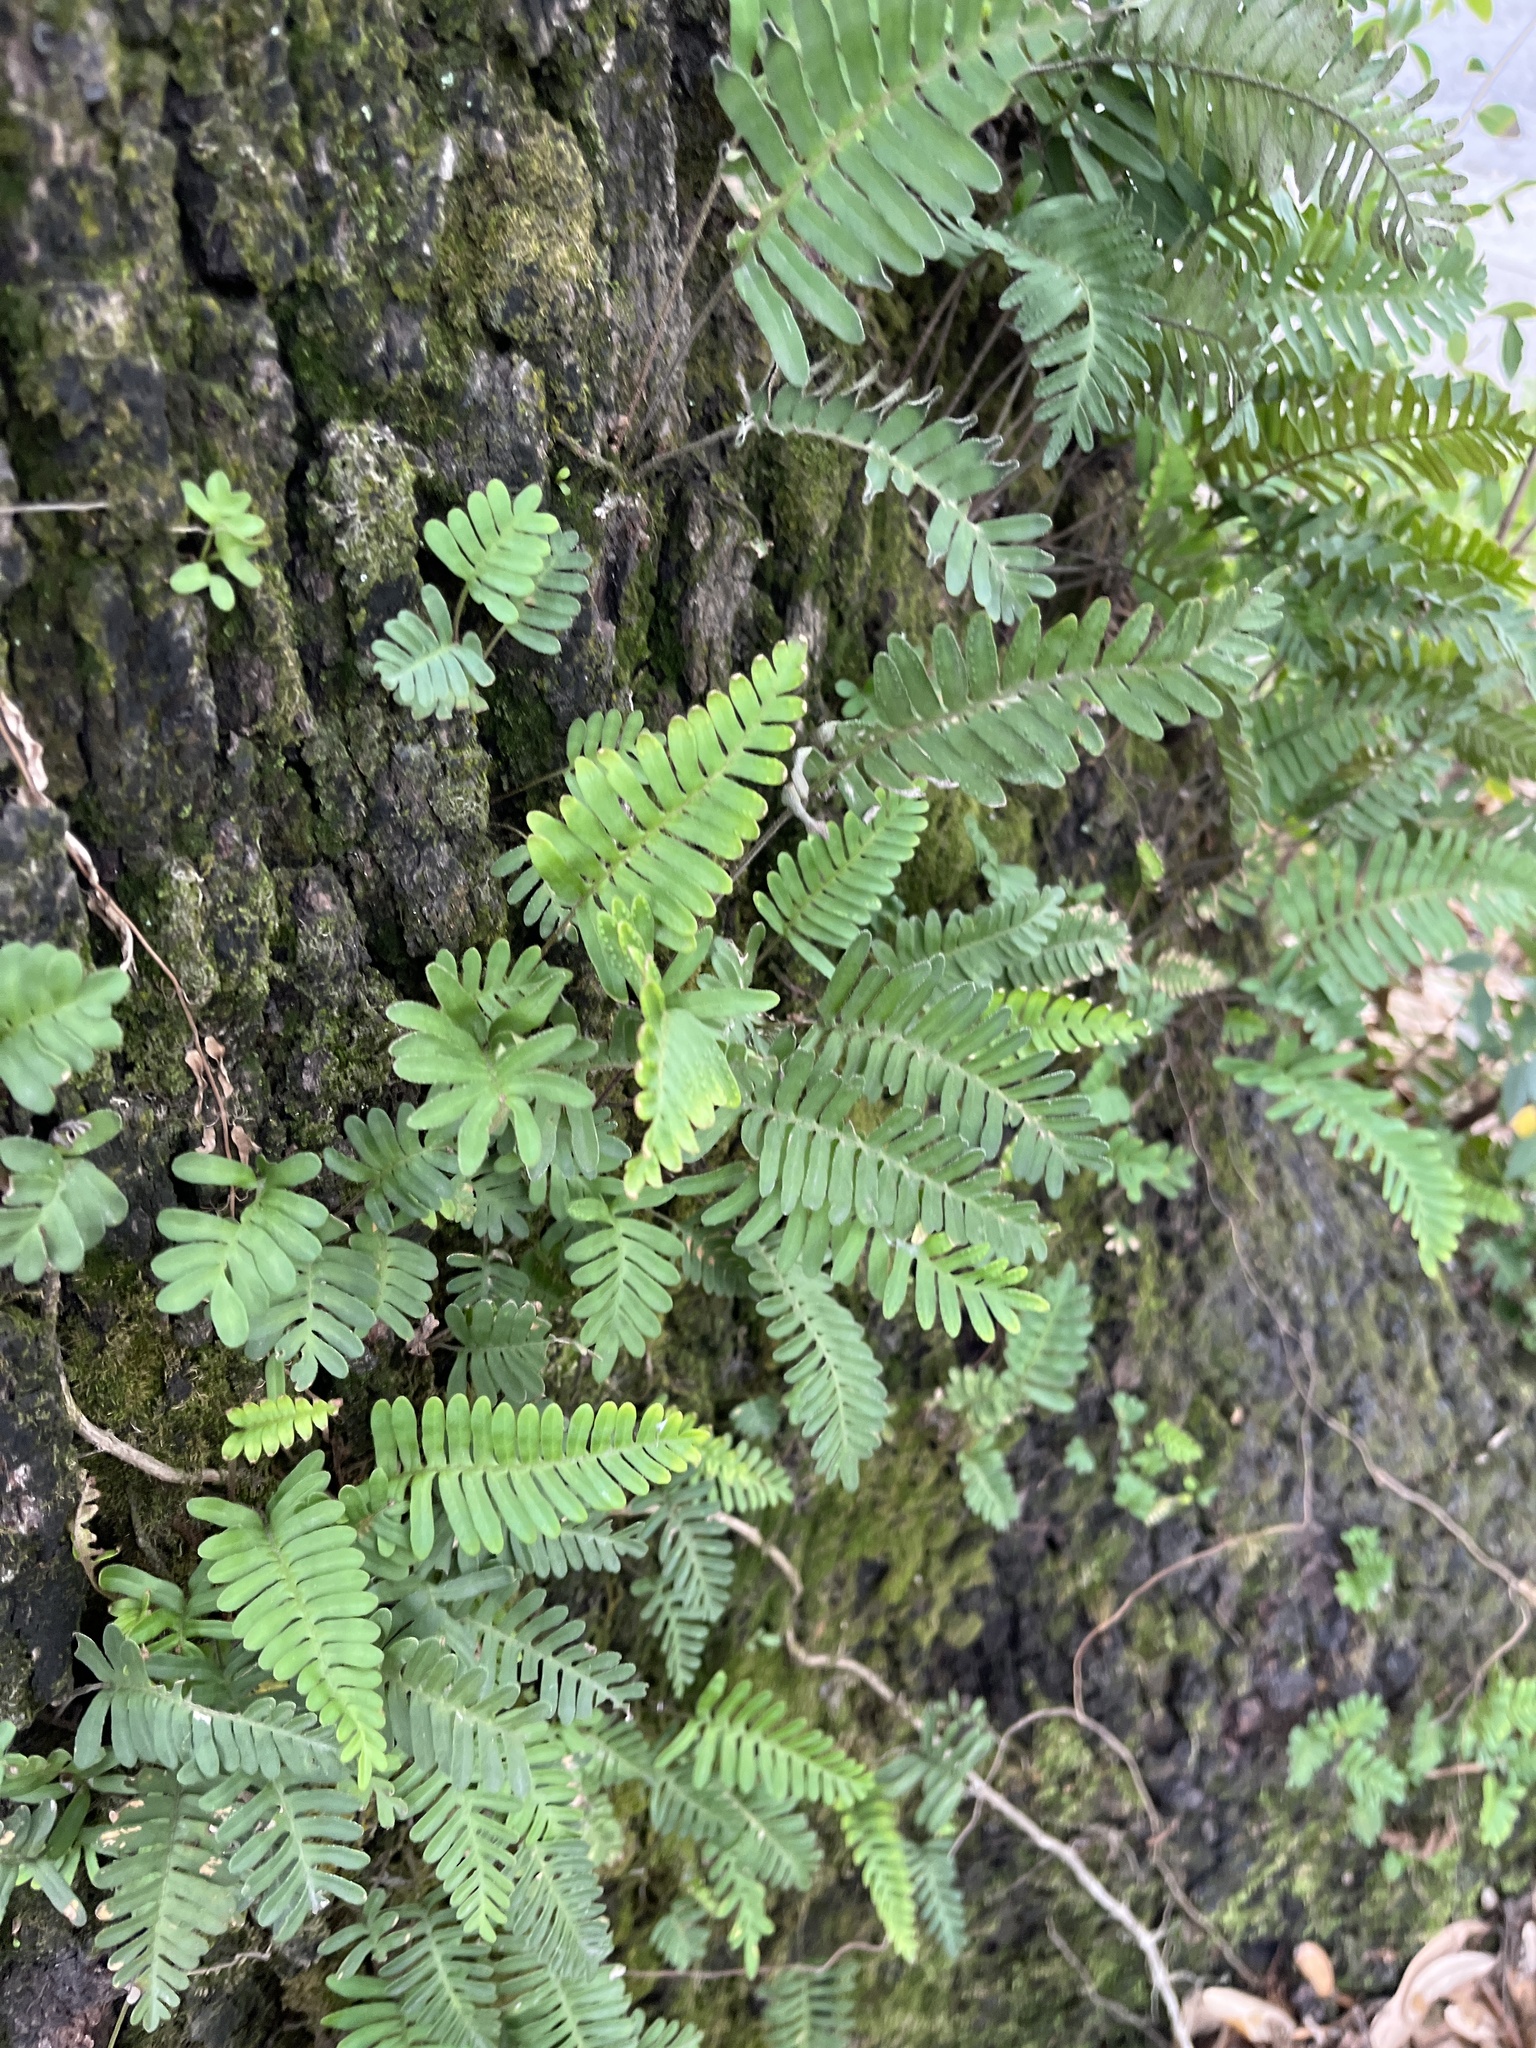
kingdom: Plantae
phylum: Tracheophyta
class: Polypodiopsida
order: Polypodiales
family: Polypodiaceae
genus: Pleopeltis
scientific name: Pleopeltis michauxiana
